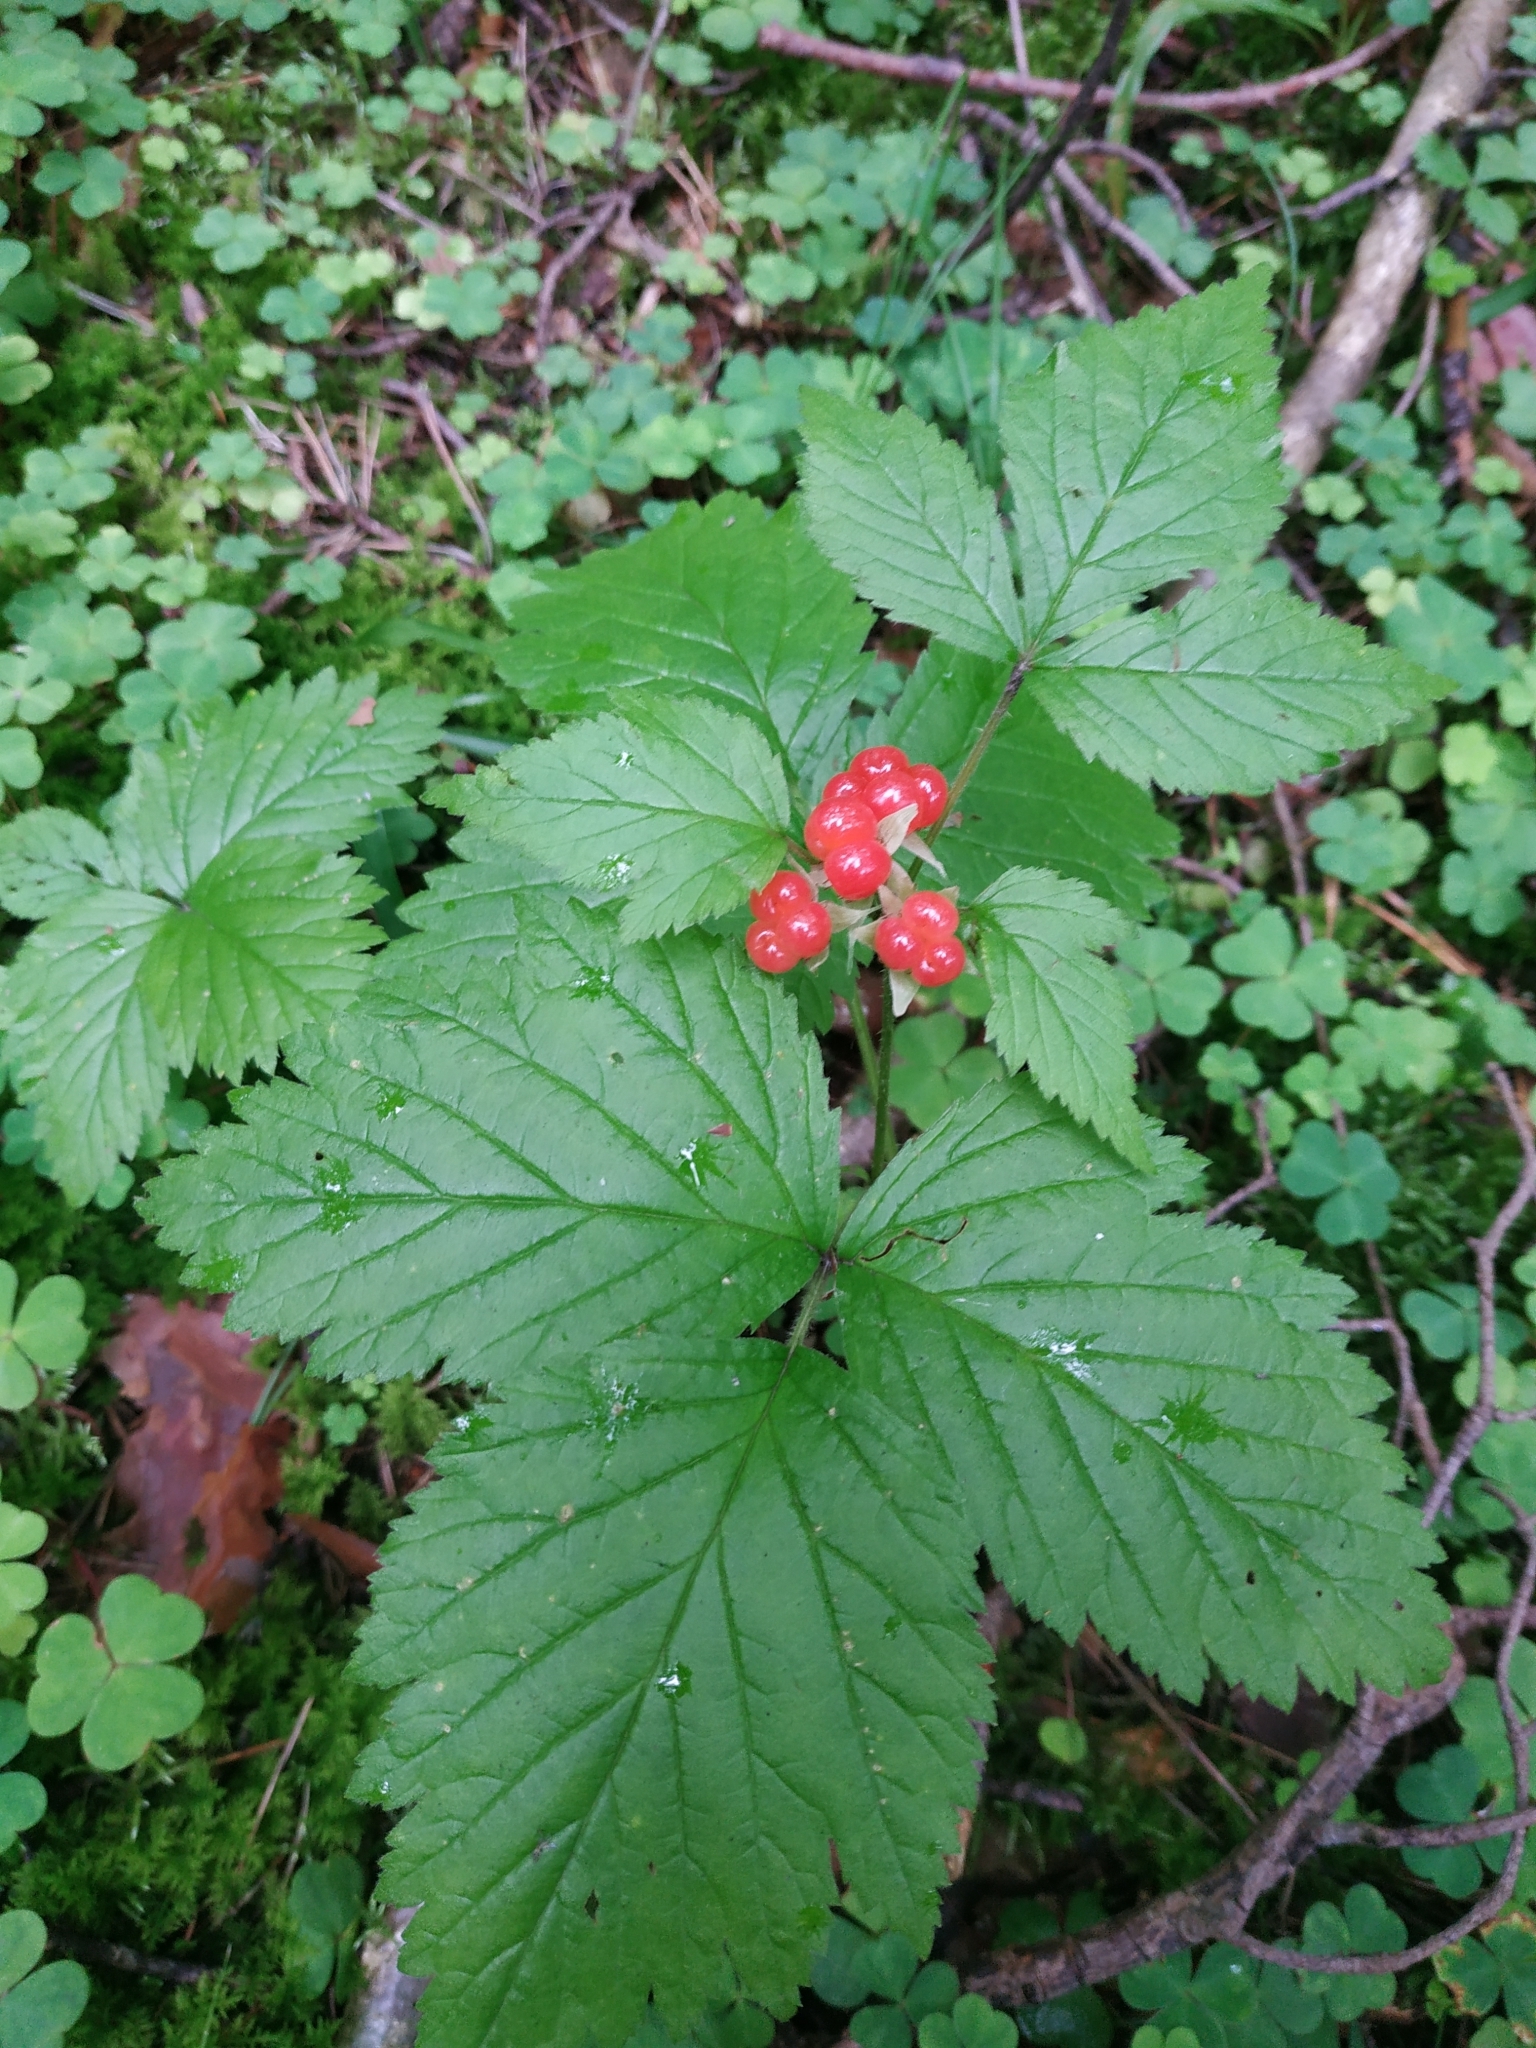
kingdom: Plantae
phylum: Tracheophyta
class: Magnoliopsida
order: Rosales
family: Rosaceae
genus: Rubus
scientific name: Rubus saxatilis
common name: Stone bramble
